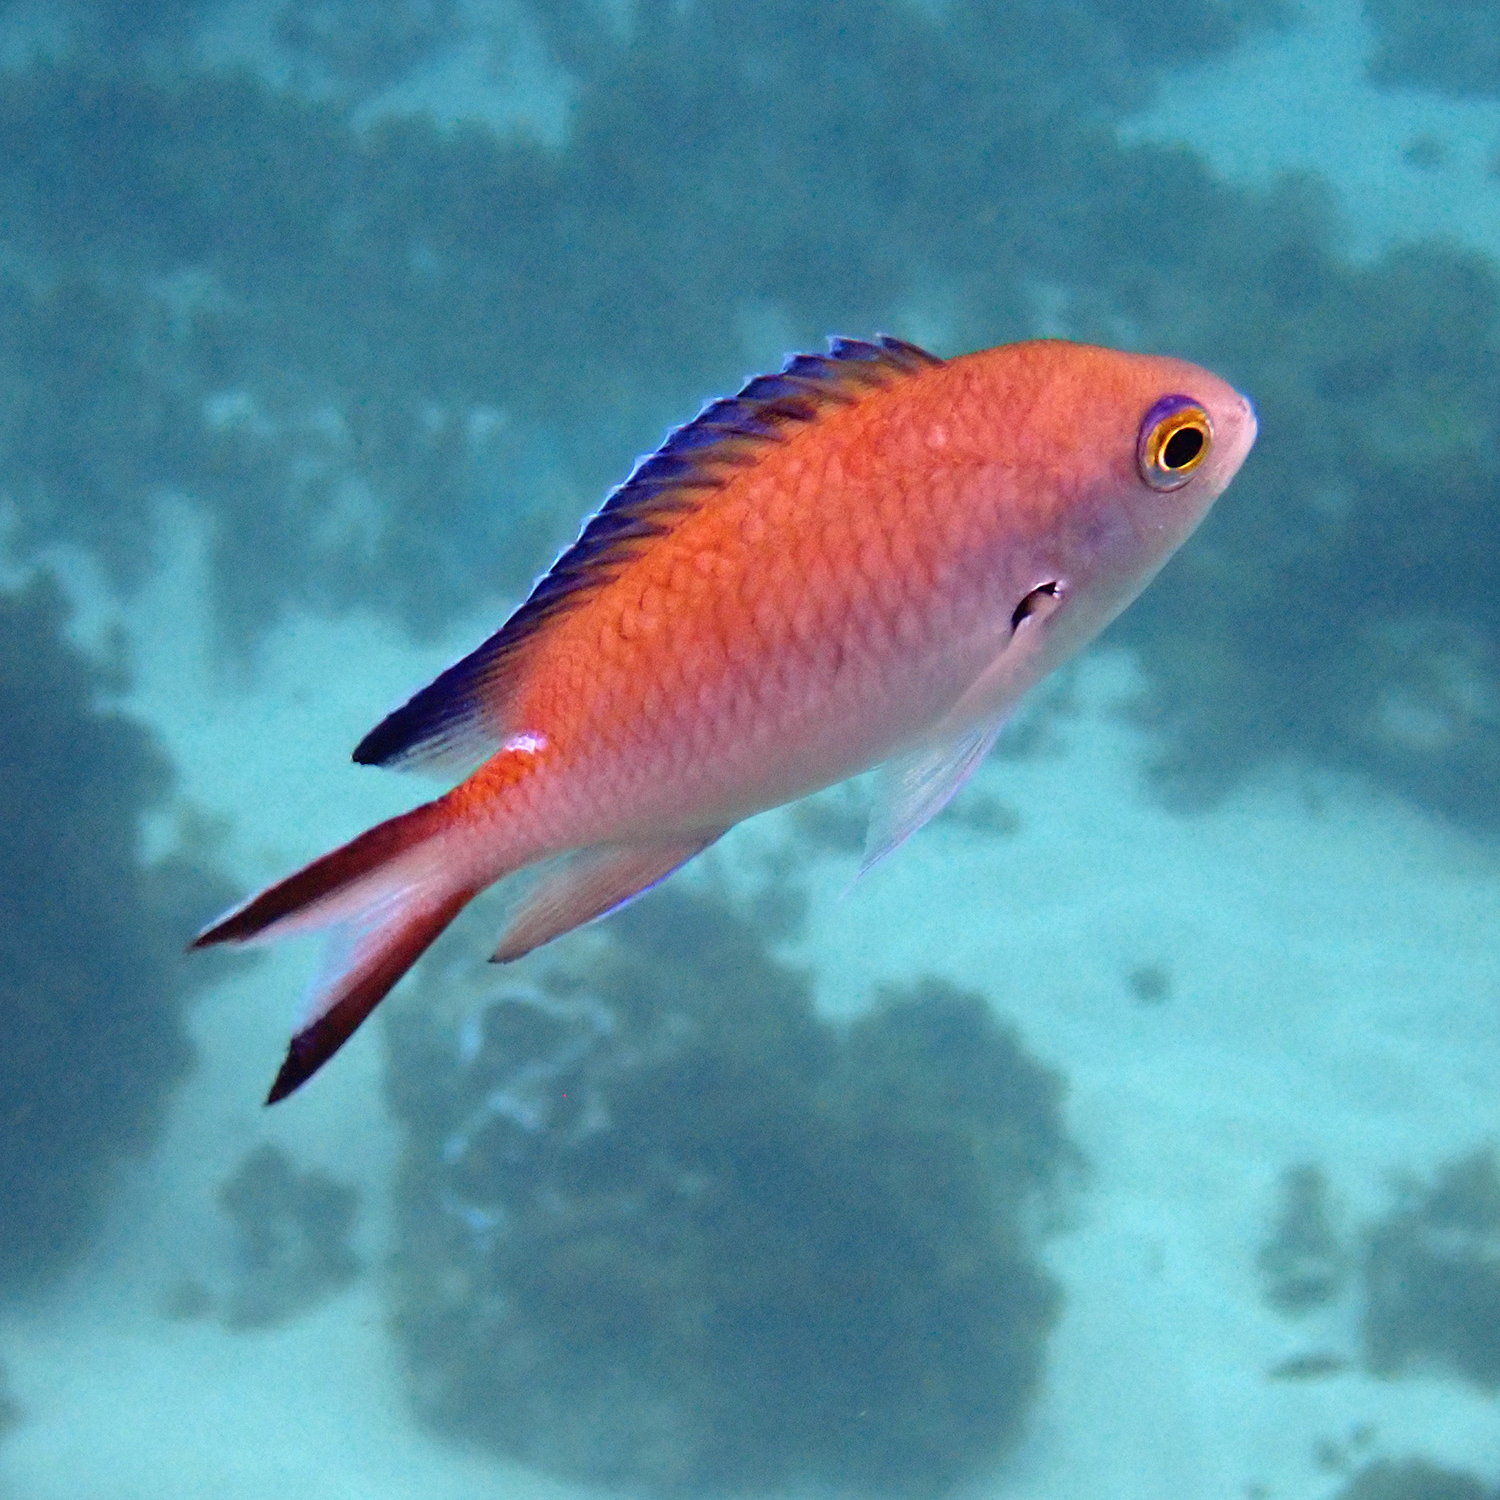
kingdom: Animalia
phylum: Chordata
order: Perciformes
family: Pomacentridae
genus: Chromis
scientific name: Chromis norfolkensis
